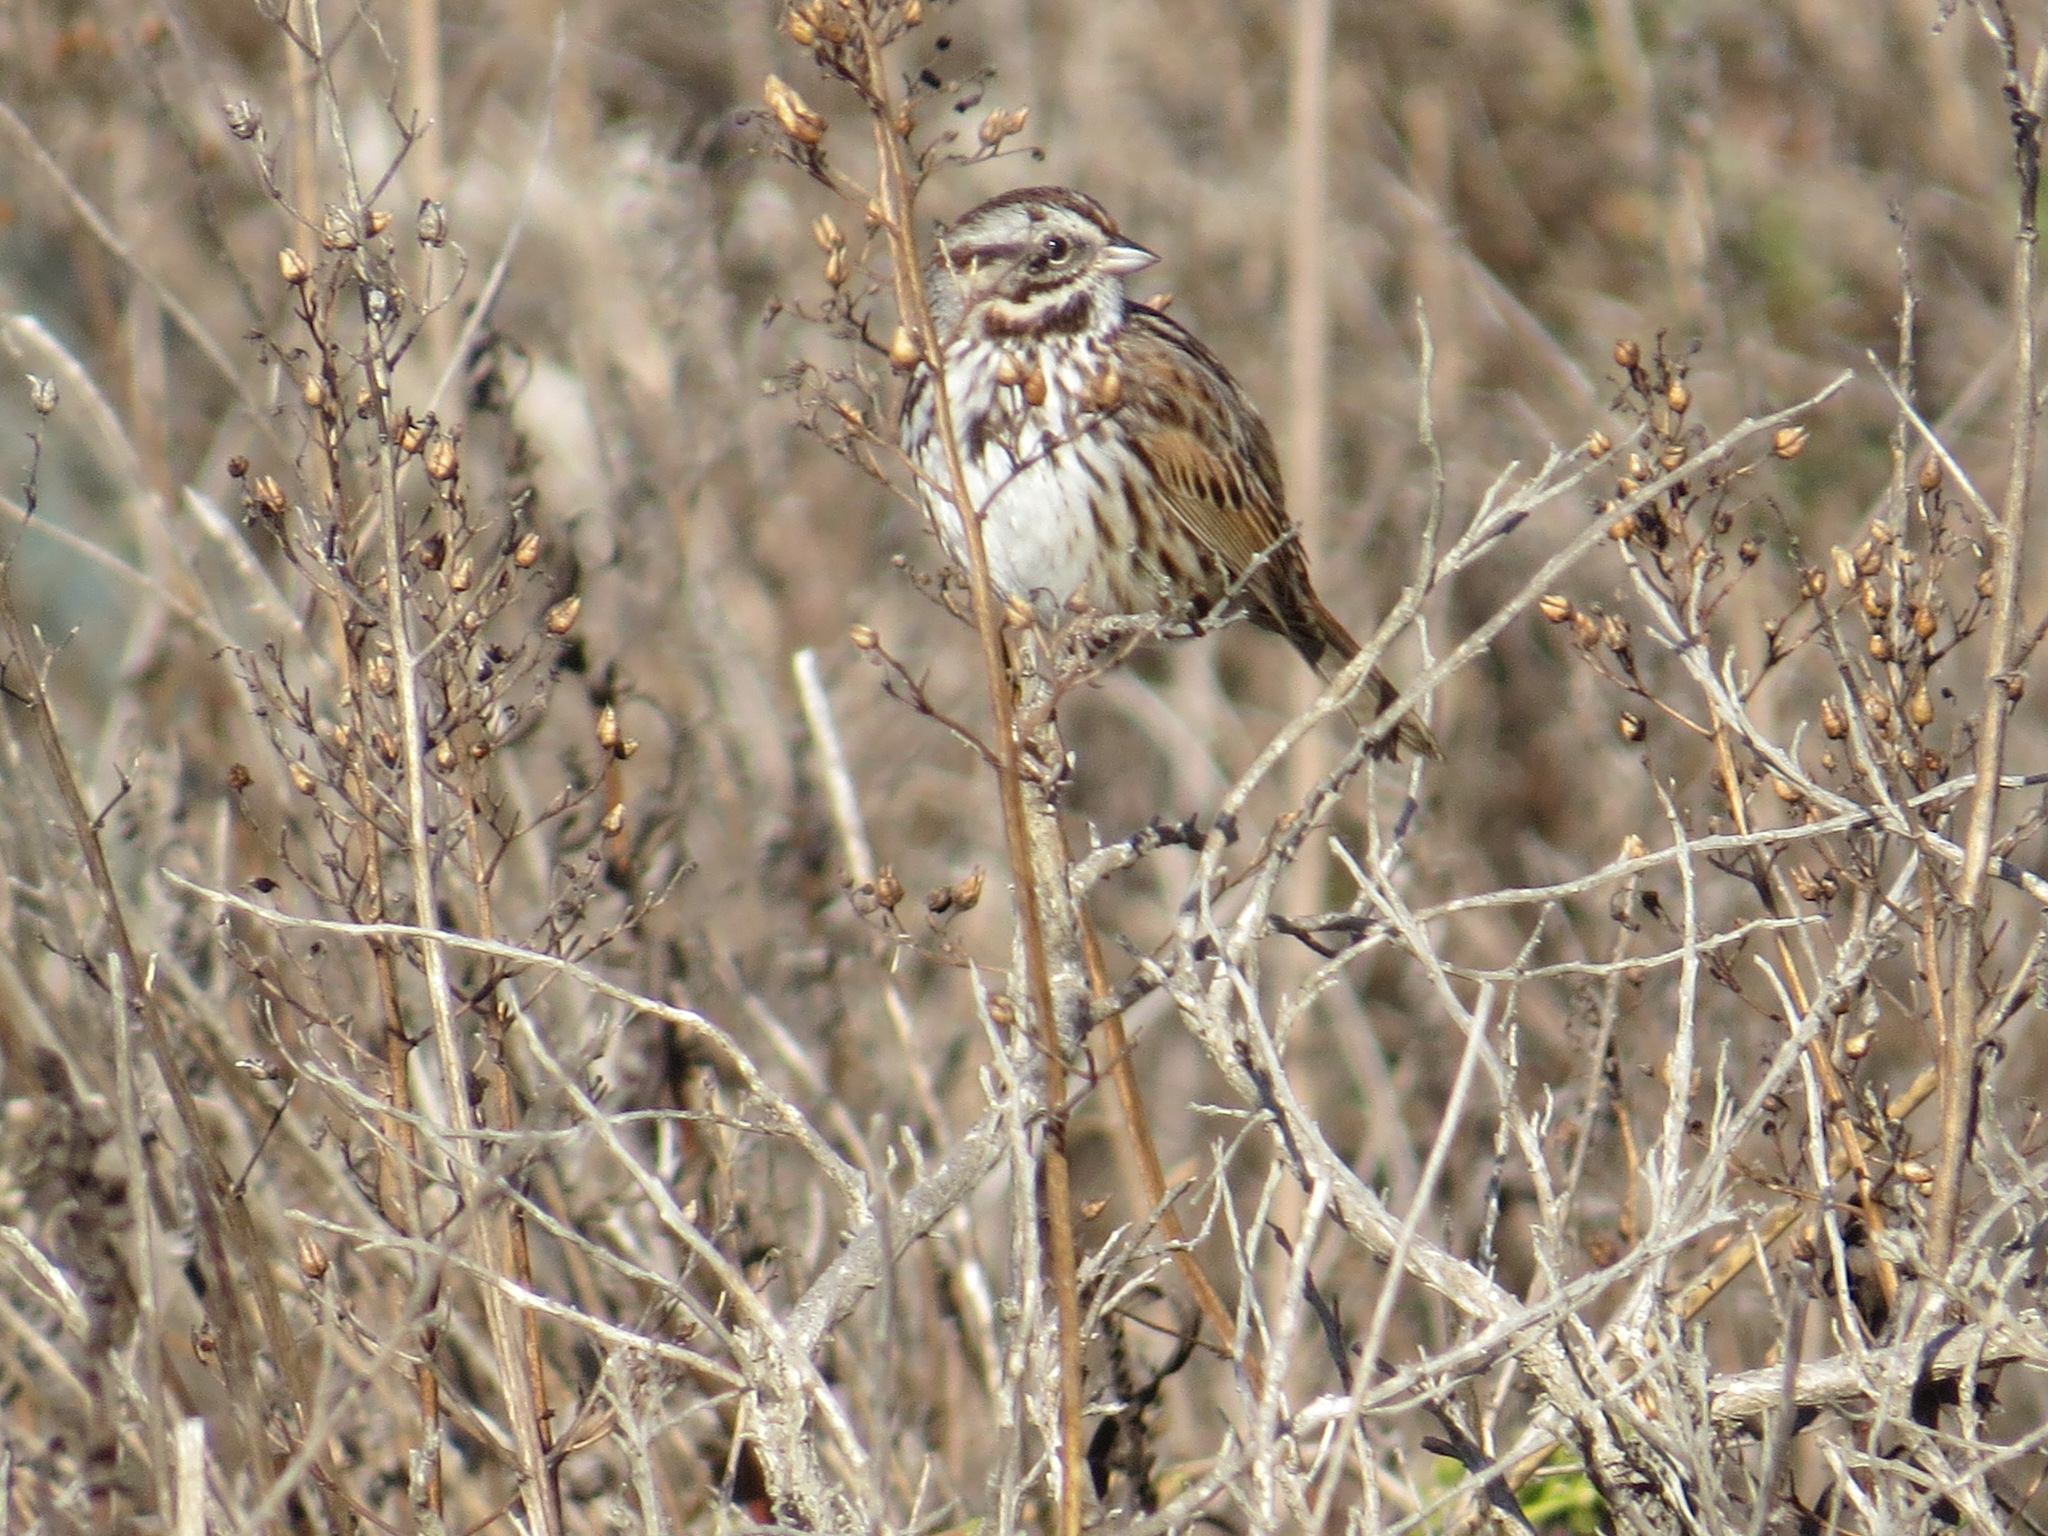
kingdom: Animalia
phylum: Chordata
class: Aves
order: Passeriformes
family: Passerellidae
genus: Melospiza
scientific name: Melospiza melodia
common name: Song sparrow
